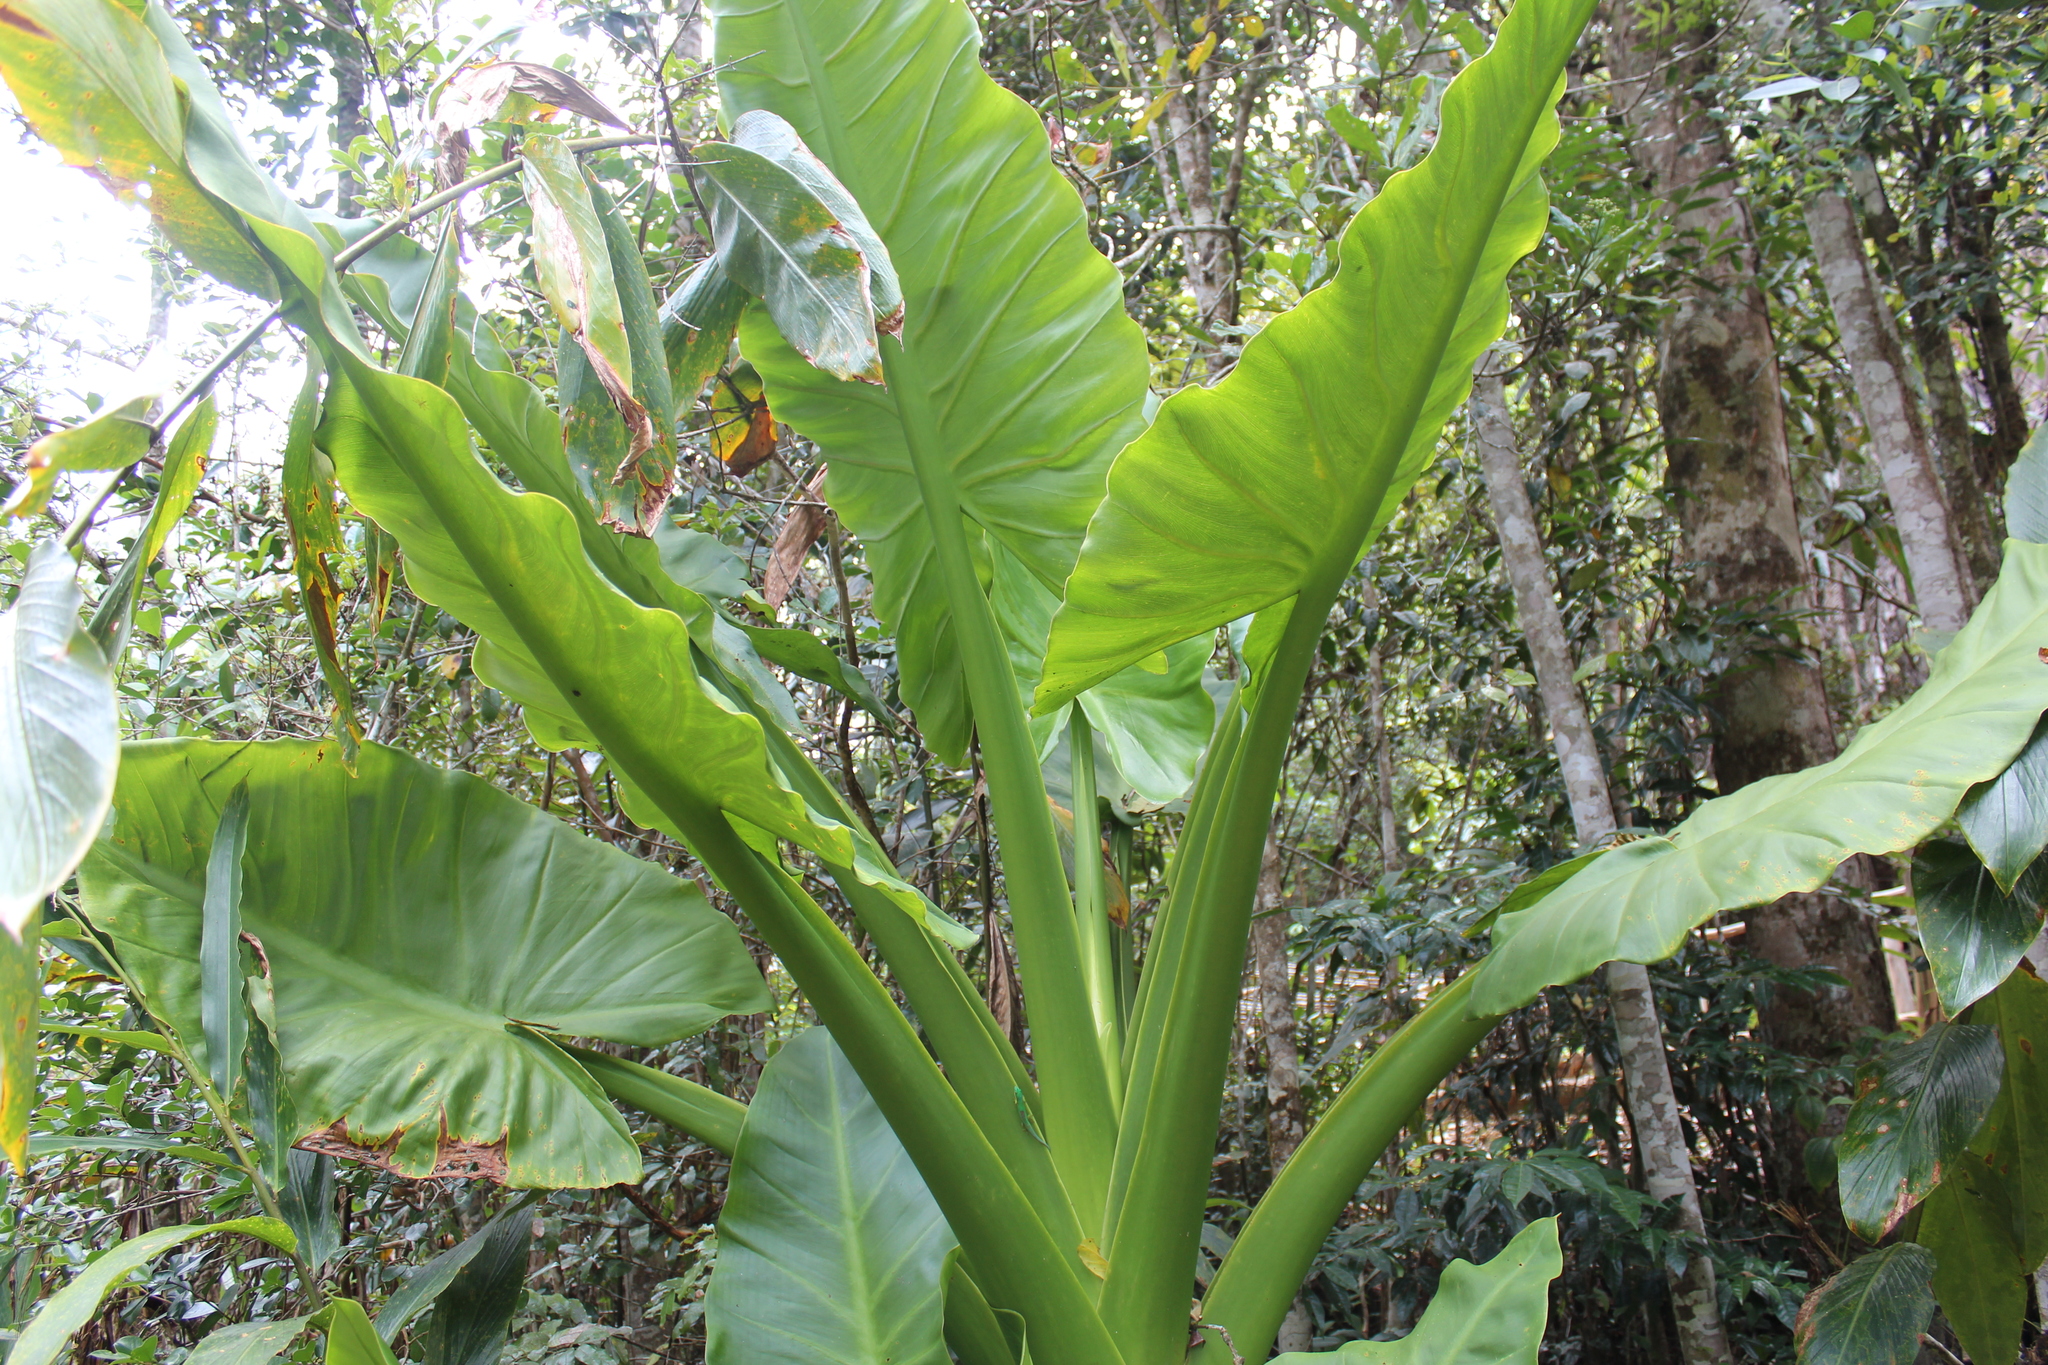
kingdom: Plantae
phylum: Tracheophyta
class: Liliopsida
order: Alismatales
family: Araceae
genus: Typhonodorum
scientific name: Typhonodorum lindleyanum
